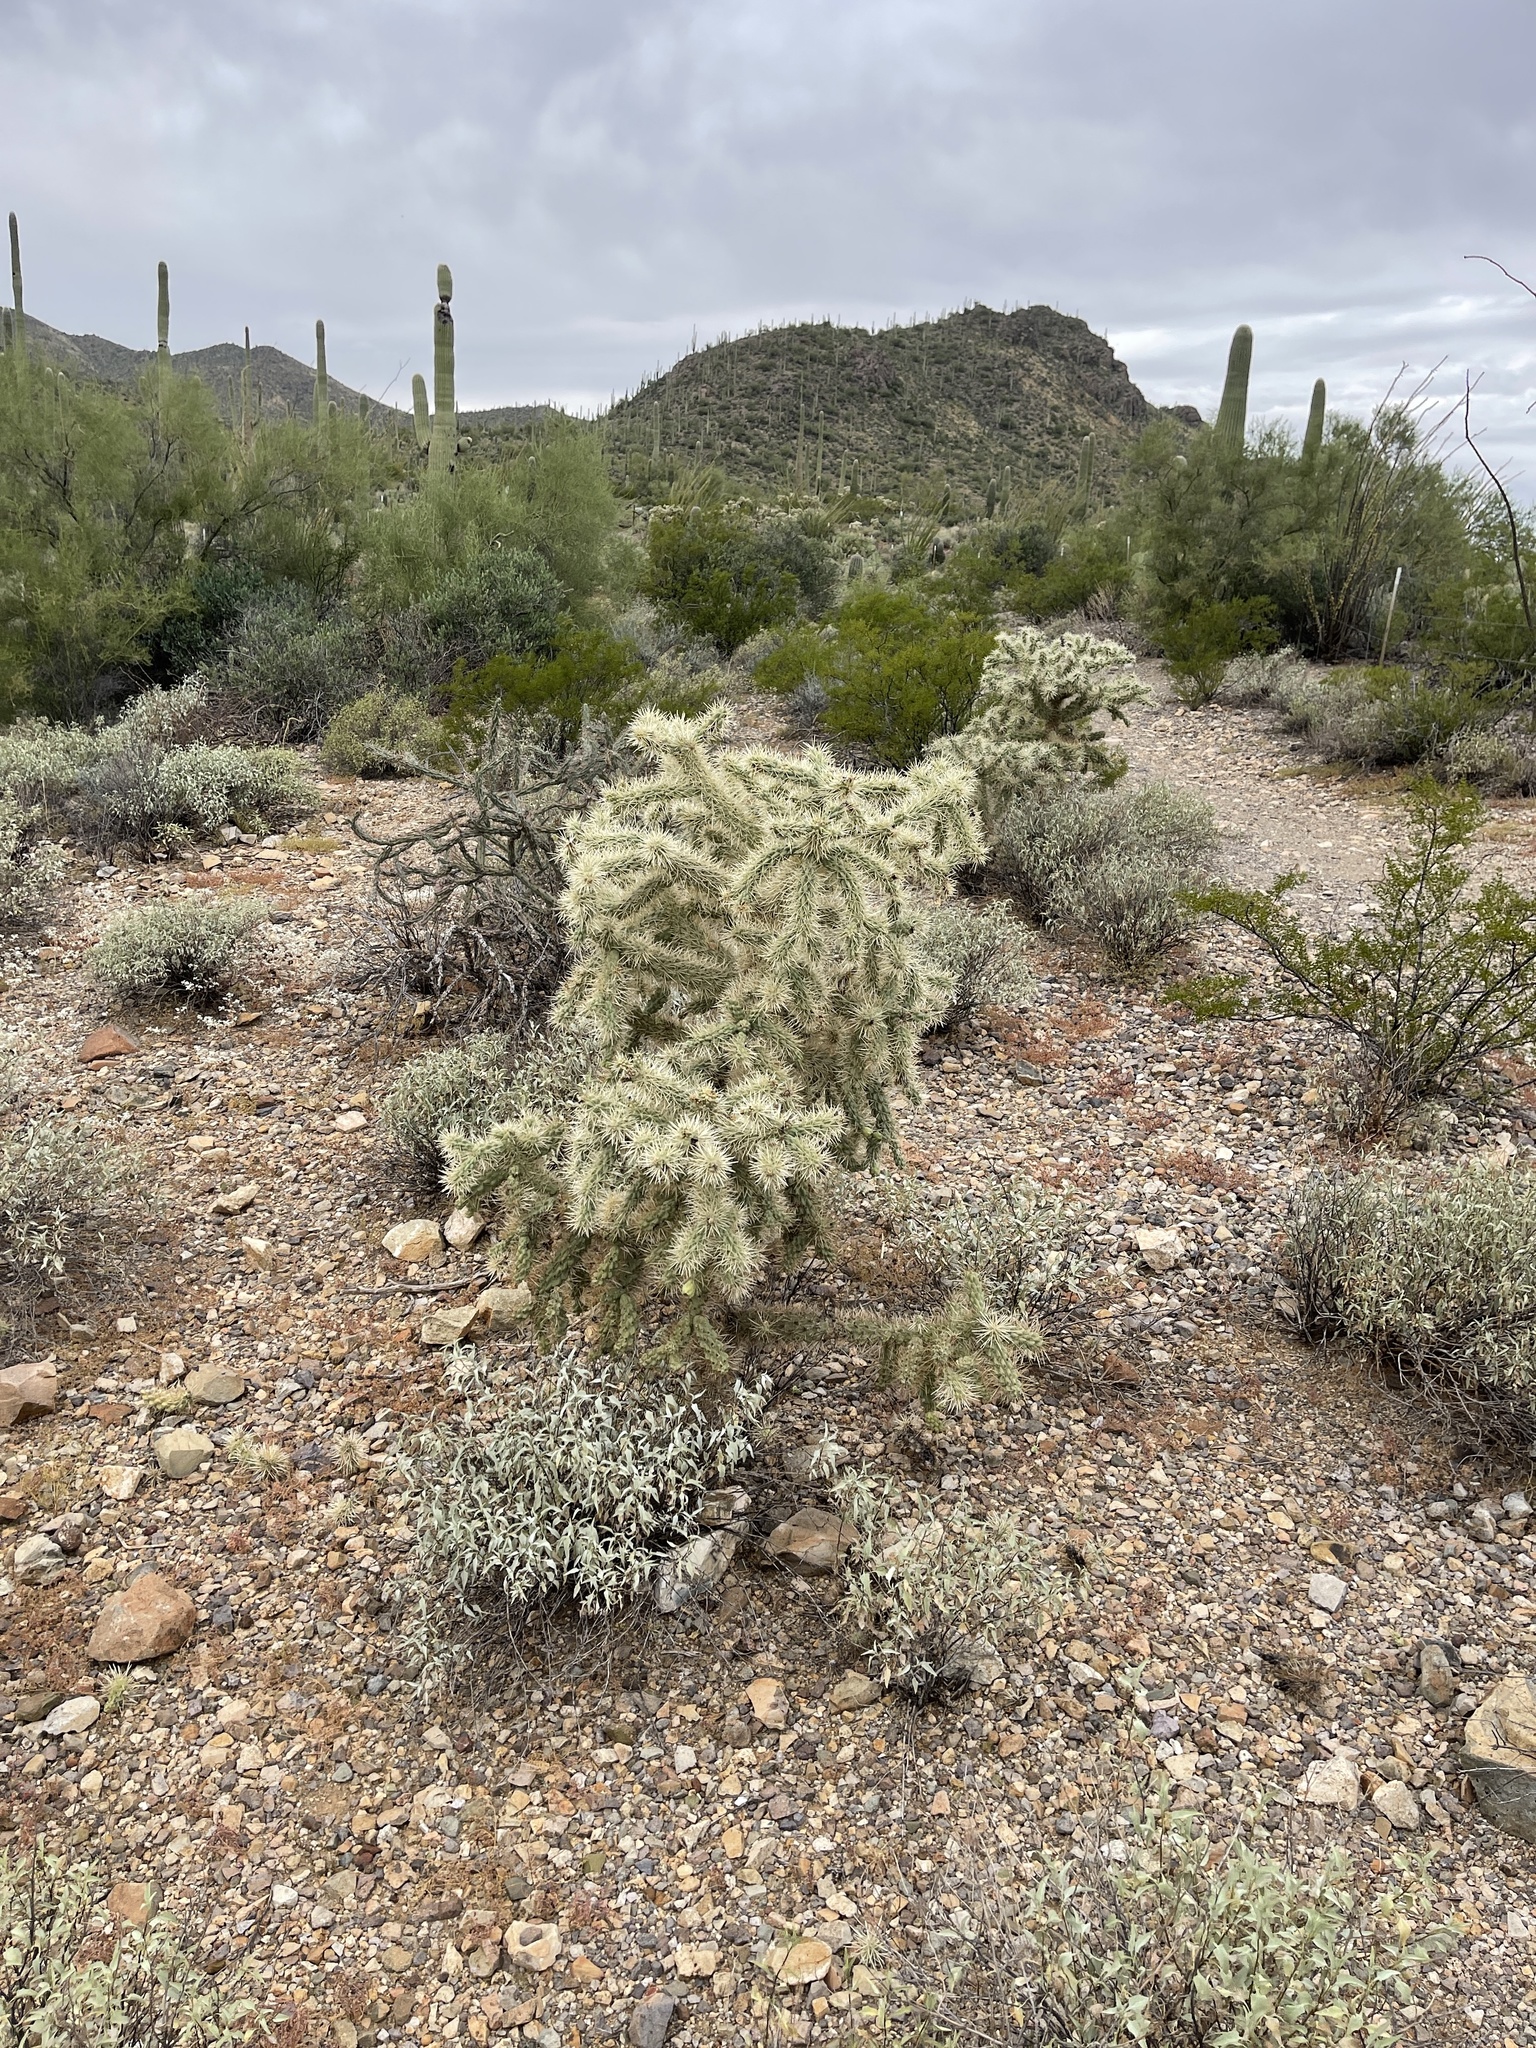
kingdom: Plantae
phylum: Tracheophyta
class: Magnoliopsida
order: Caryophyllales
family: Cactaceae
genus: Cylindropuntia
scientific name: Cylindropuntia fulgida
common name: Jumping cholla
